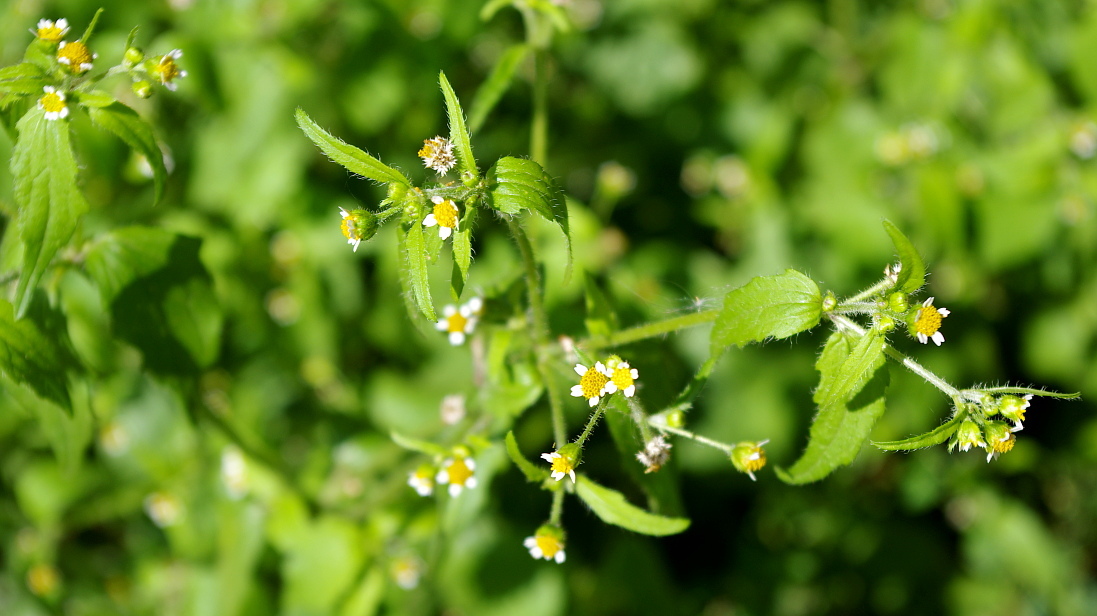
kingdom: Plantae
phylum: Tracheophyta
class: Magnoliopsida
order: Asterales
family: Asteraceae
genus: Galinsoga
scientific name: Galinsoga quadriradiata
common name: Shaggy soldier
